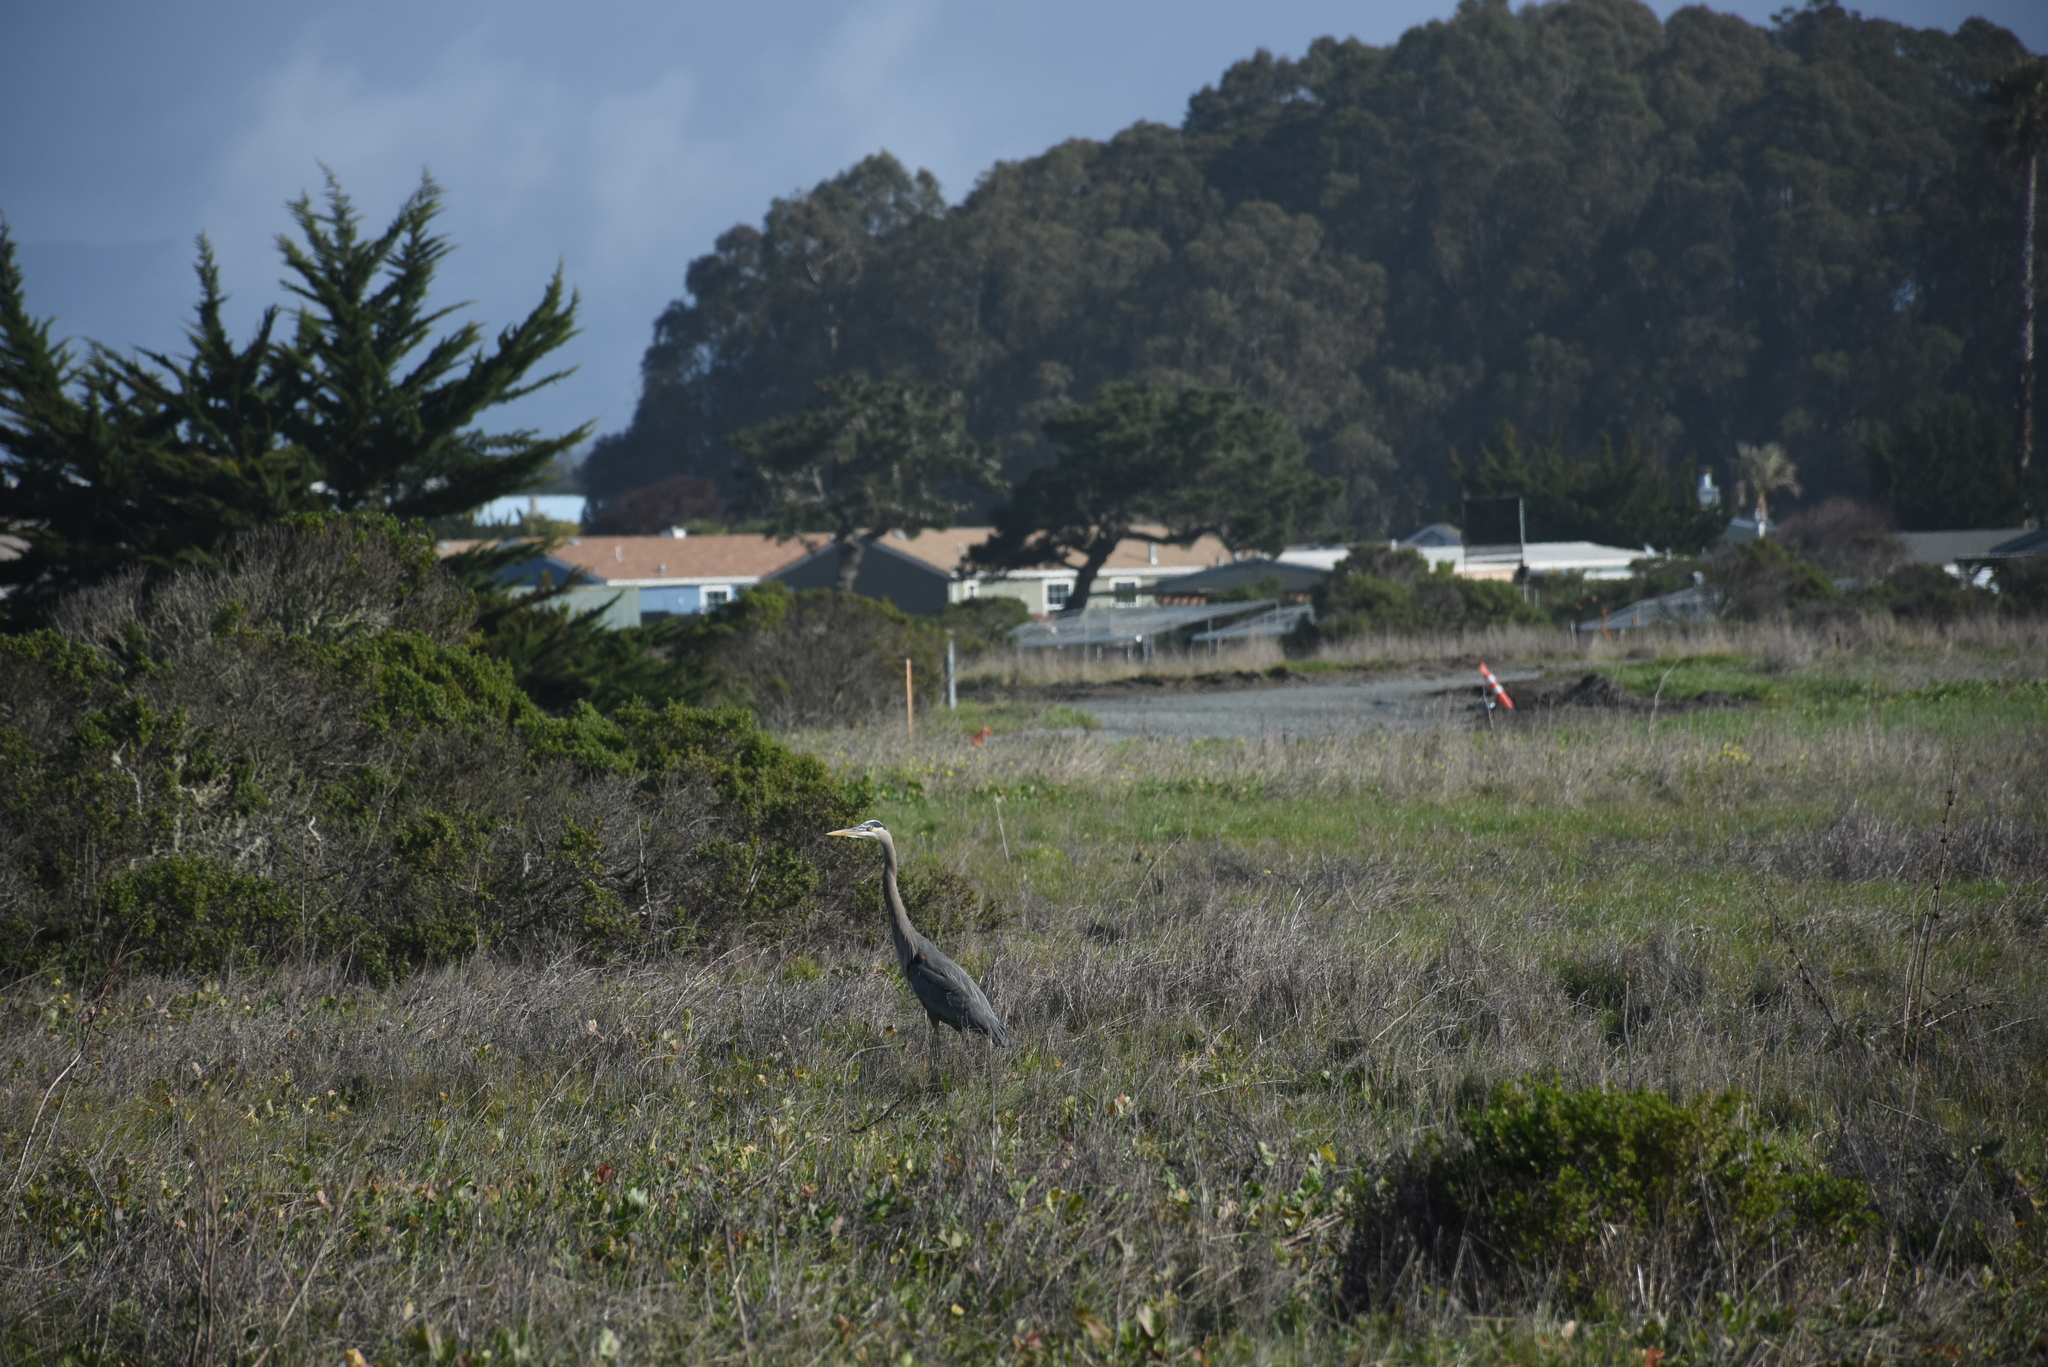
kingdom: Animalia
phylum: Chordata
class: Aves
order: Pelecaniformes
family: Ardeidae
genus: Ardea
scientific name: Ardea herodias
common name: Great blue heron
